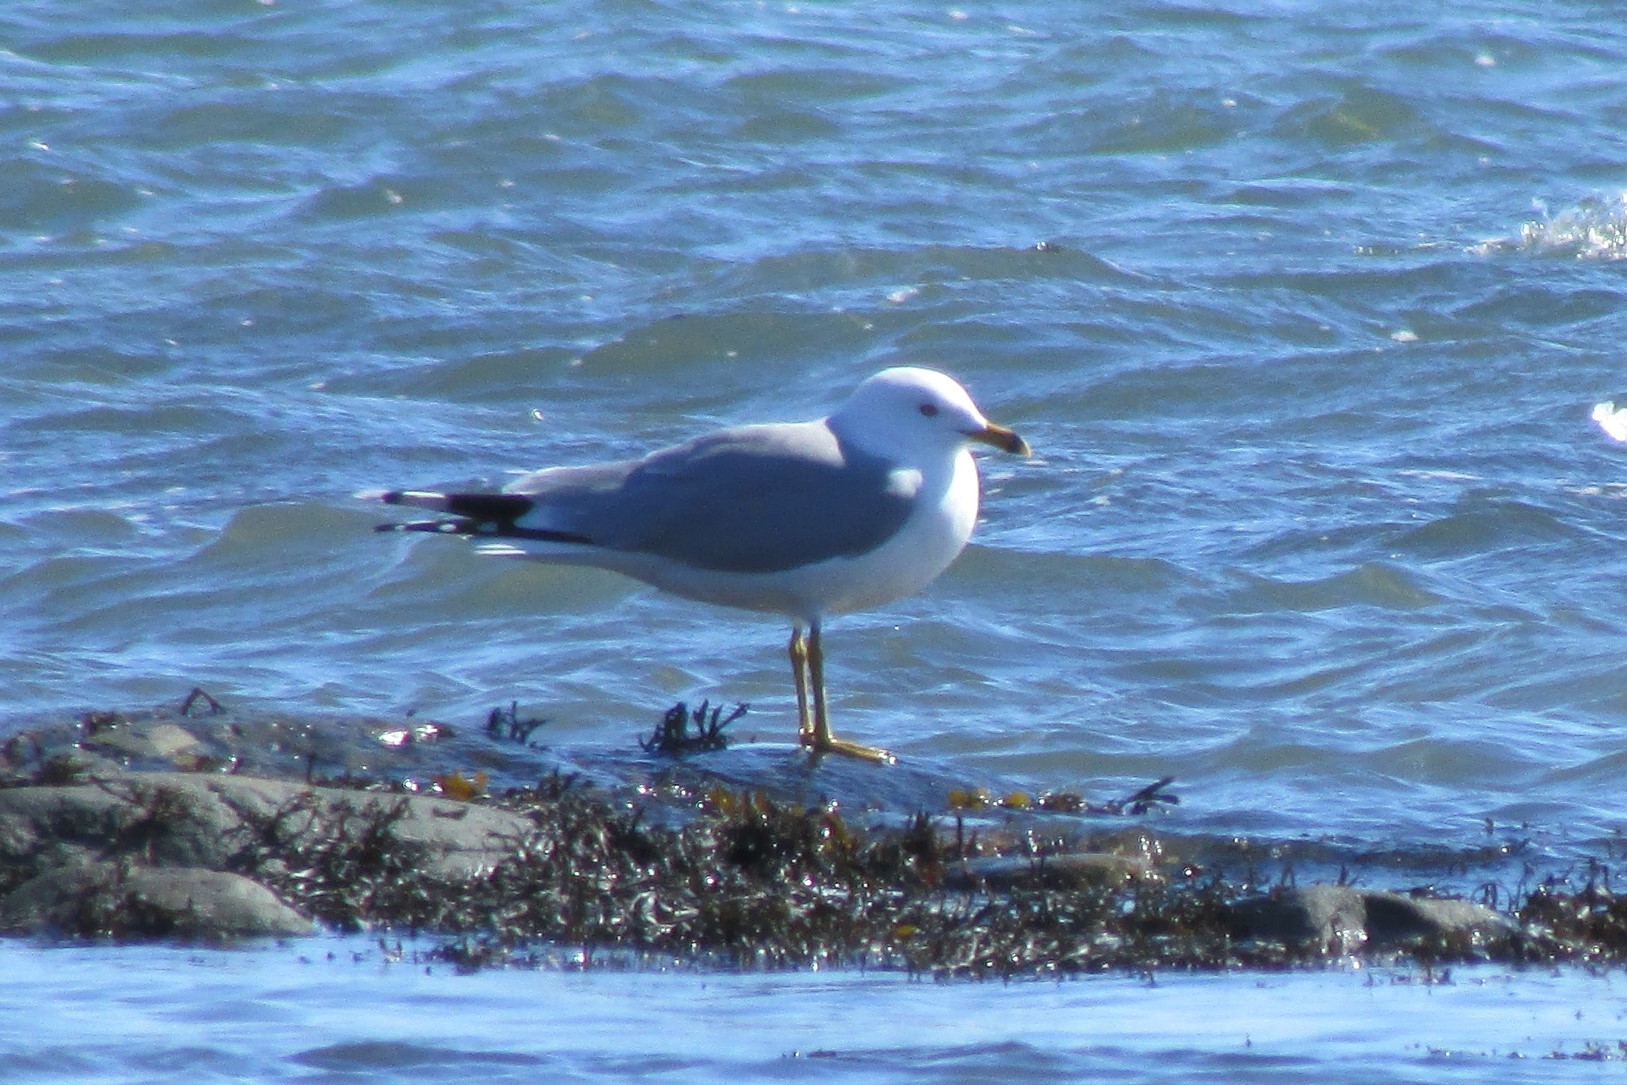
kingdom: Animalia
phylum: Chordata
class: Aves
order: Charadriiformes
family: Laridae
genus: Larus
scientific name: Larus delawarensis
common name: Ring-billed gull
